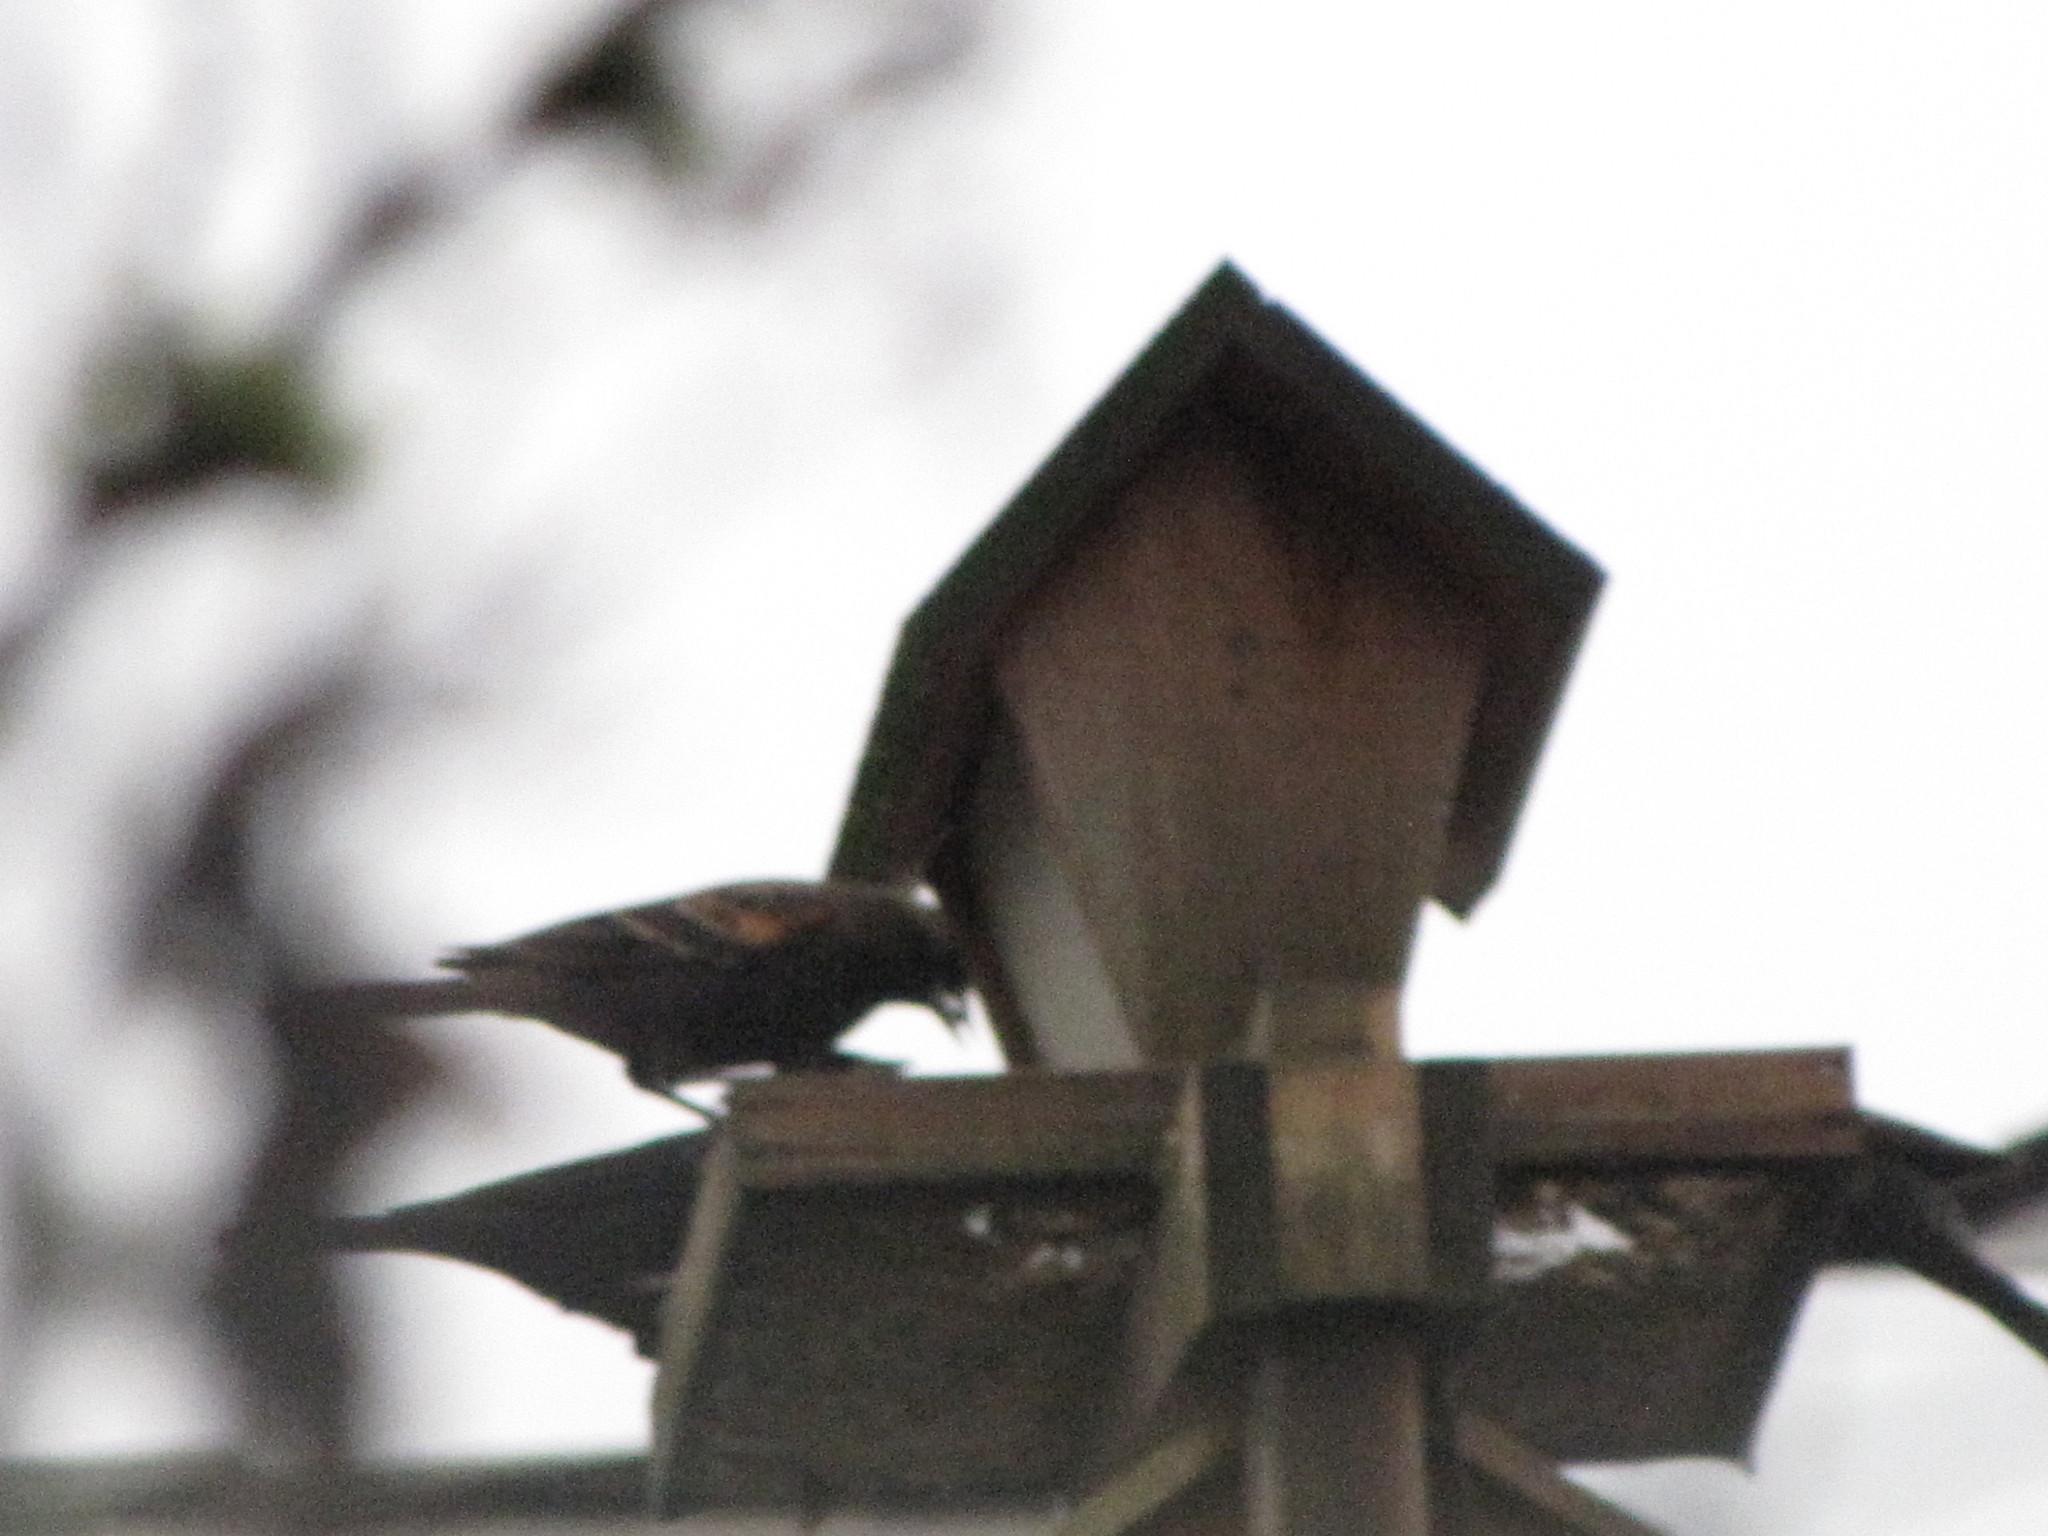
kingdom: Animalia
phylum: Chordata
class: Aves
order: Passeriformes
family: Icteridae
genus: Agelaius
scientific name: Agelaius phoeniceus
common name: Red-winged blackbird
